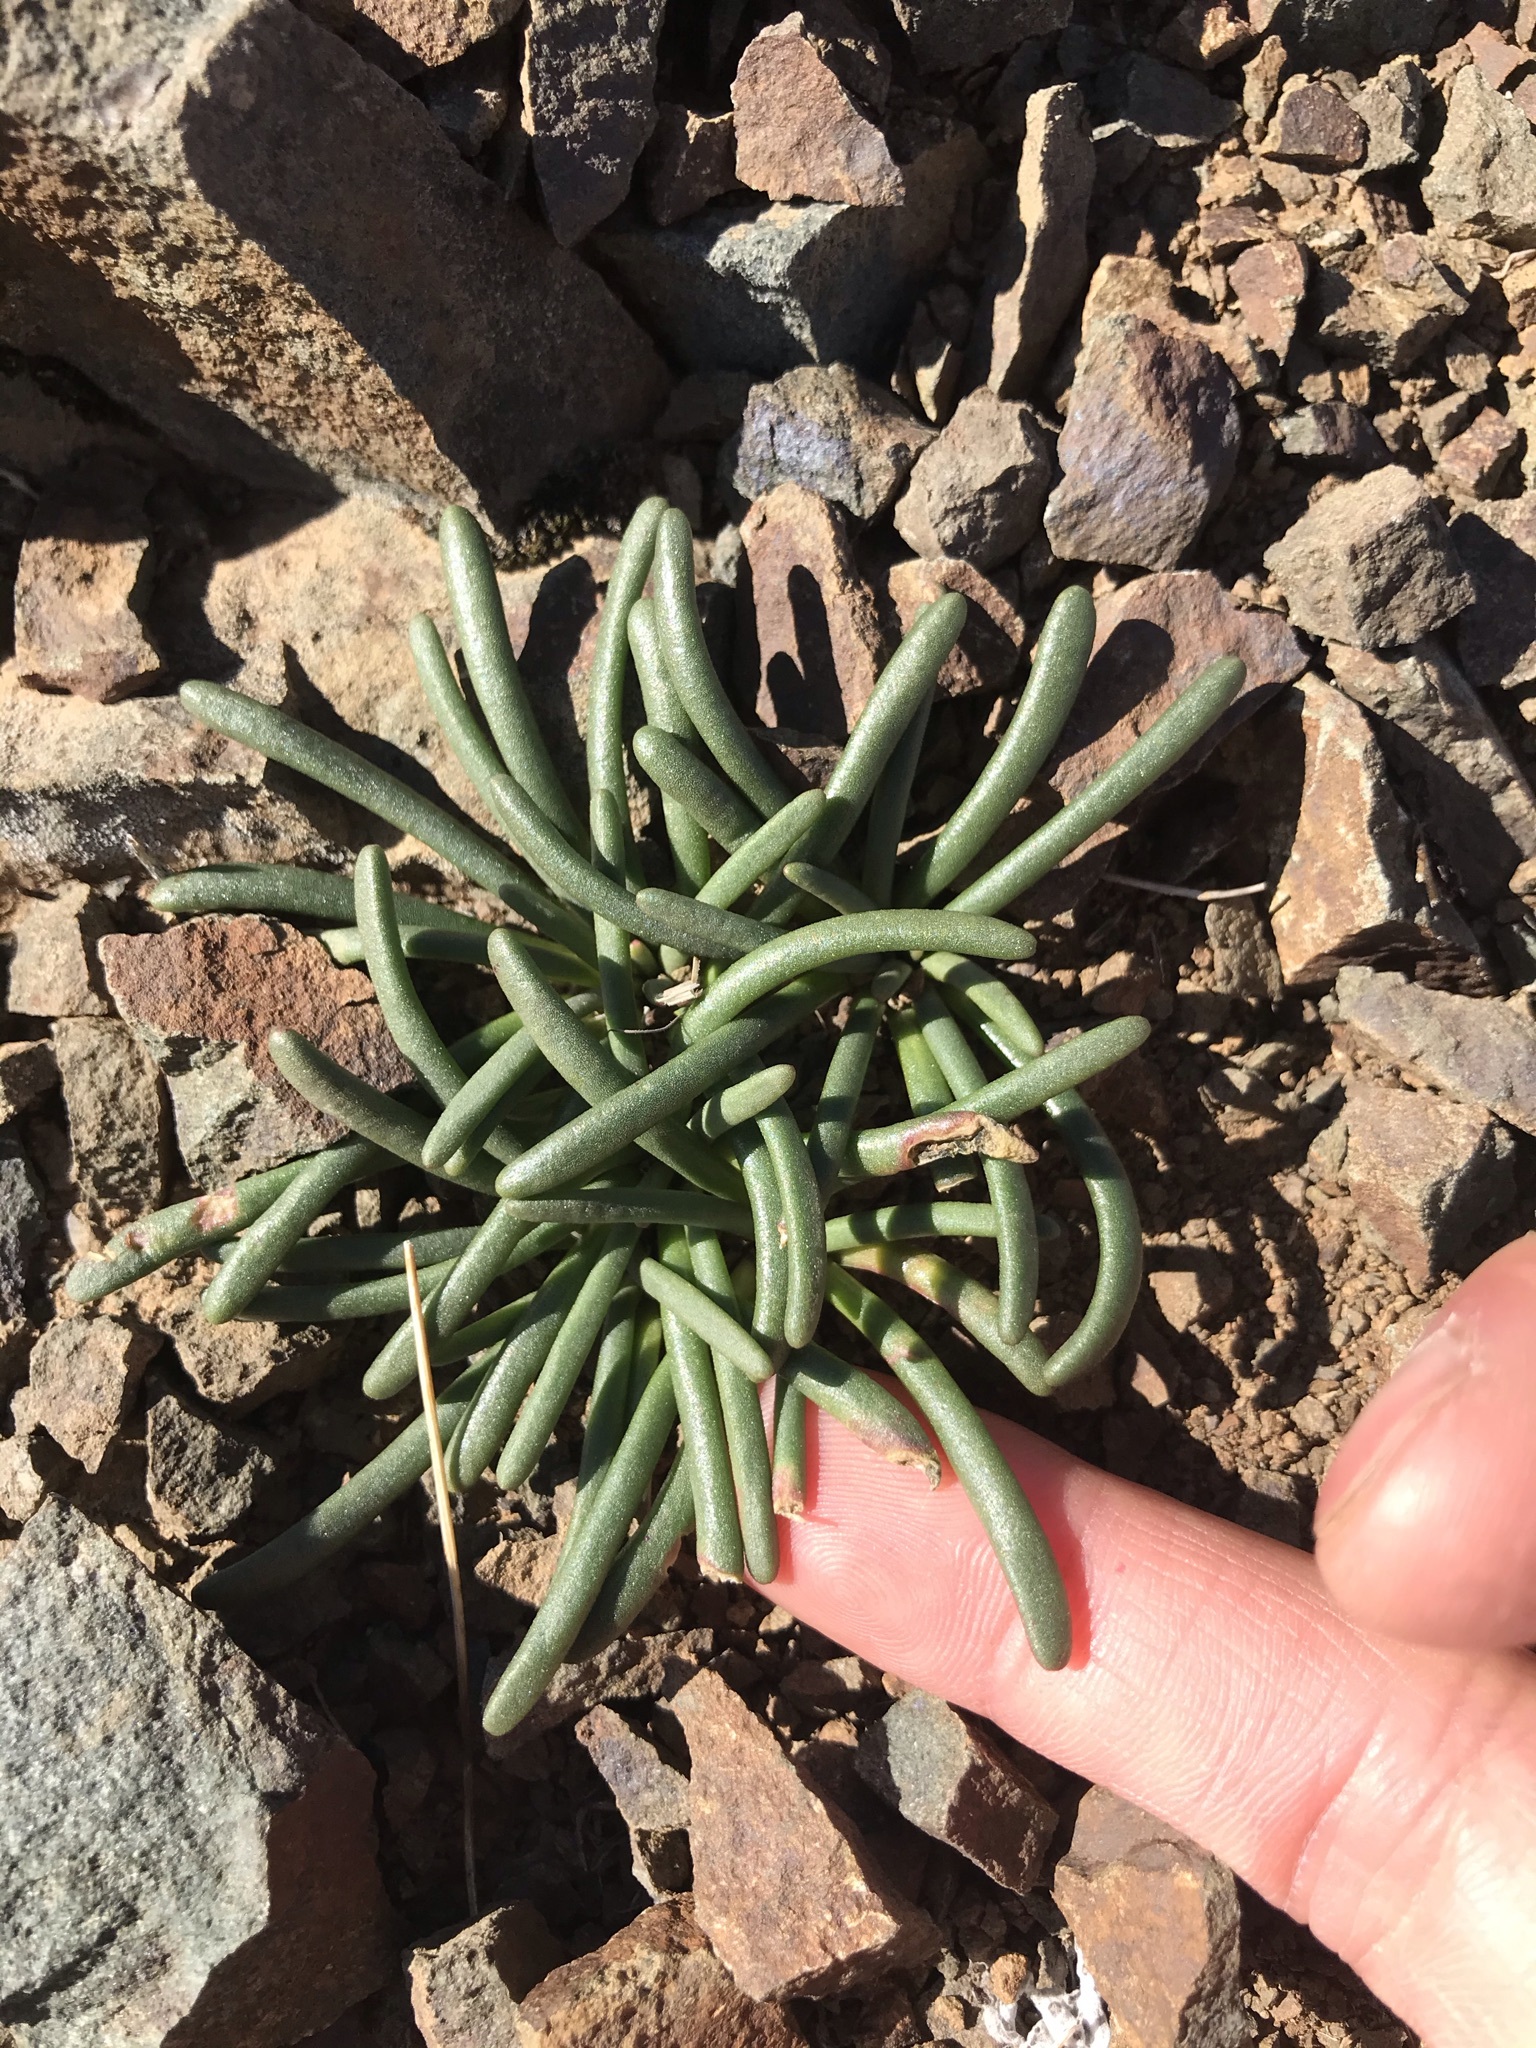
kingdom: Plantae
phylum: Tracheophyta
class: Magnoliopsida
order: Caryophyllales
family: Montiaceae
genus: Lewisia
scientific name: Lewisia rediviva
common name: Bitter-root
